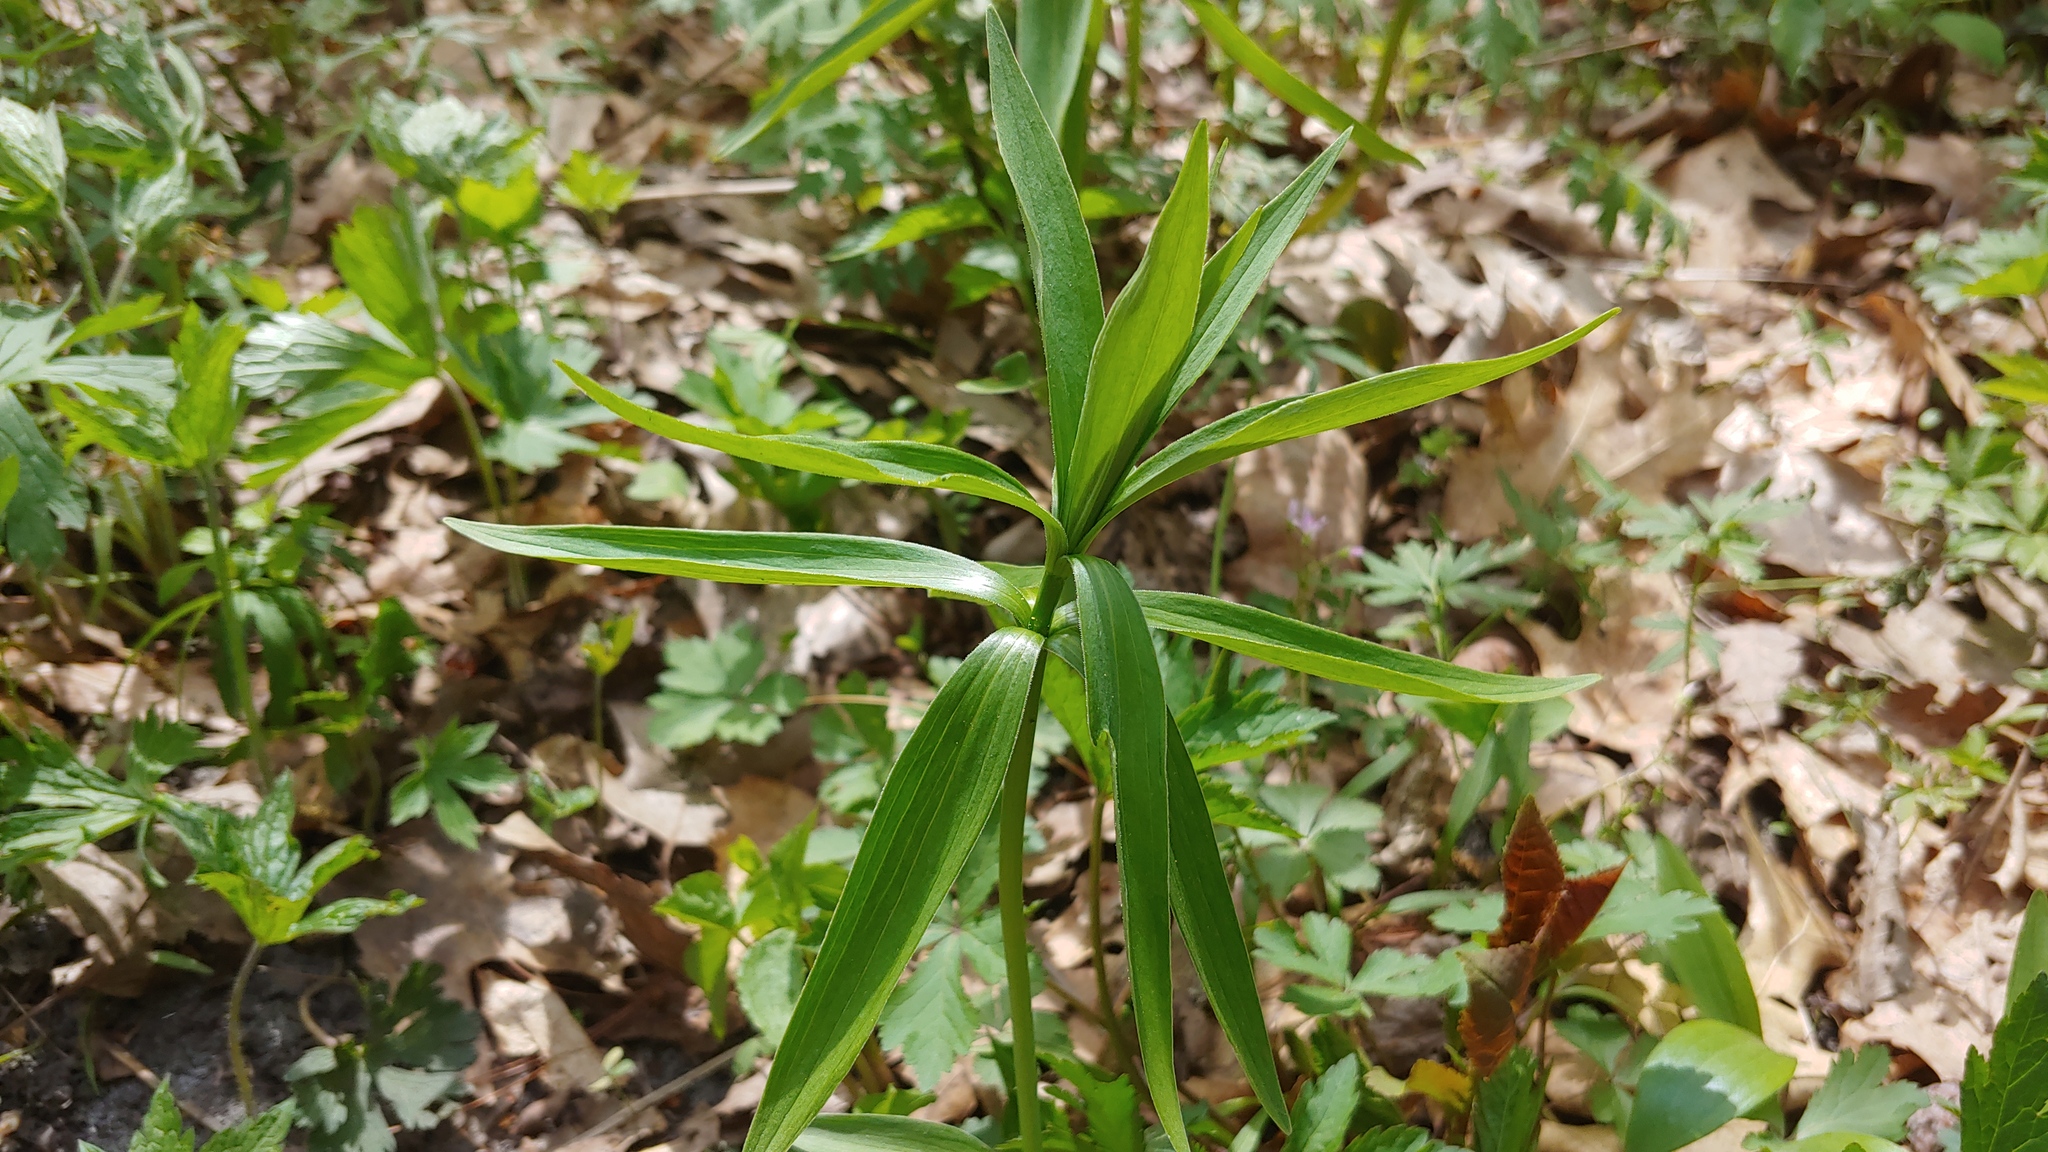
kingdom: Plantae
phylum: Tracheophyta
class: Liliopsida
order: Liliales
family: Liliaceae
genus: Lilium
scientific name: Lilium michiganense
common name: Michigan lily
